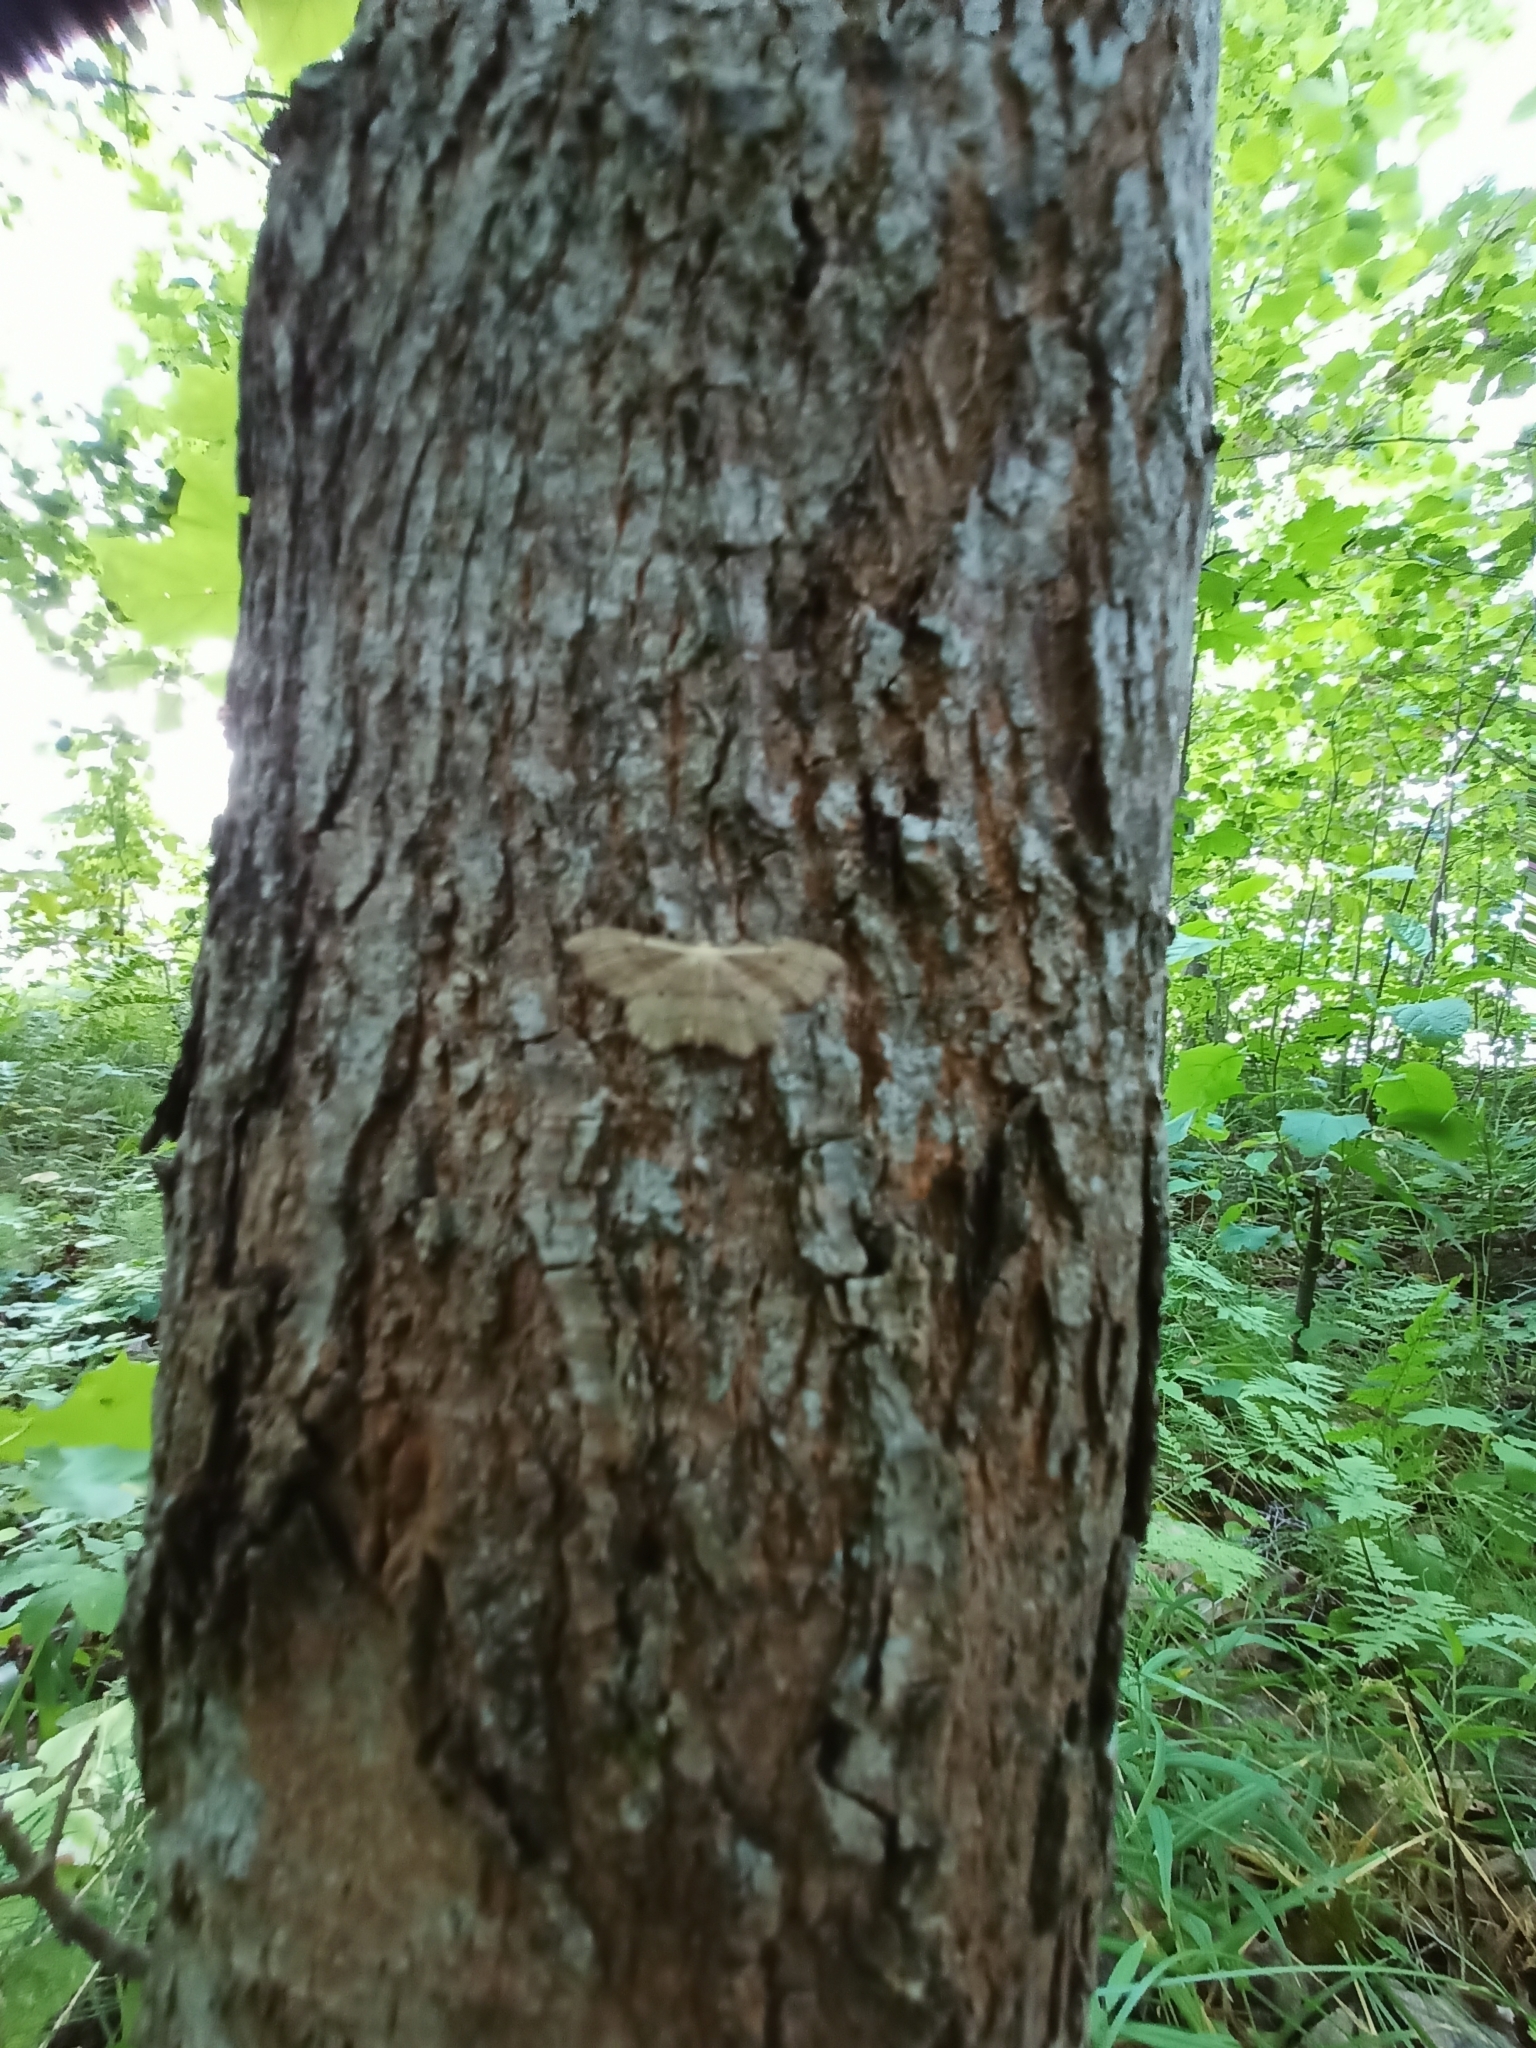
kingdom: Animalia
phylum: Arthropoda
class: Insecta
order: Lepidoptera
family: Geometridae
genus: Idaea
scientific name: Idaea emarginata
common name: Small scallop
